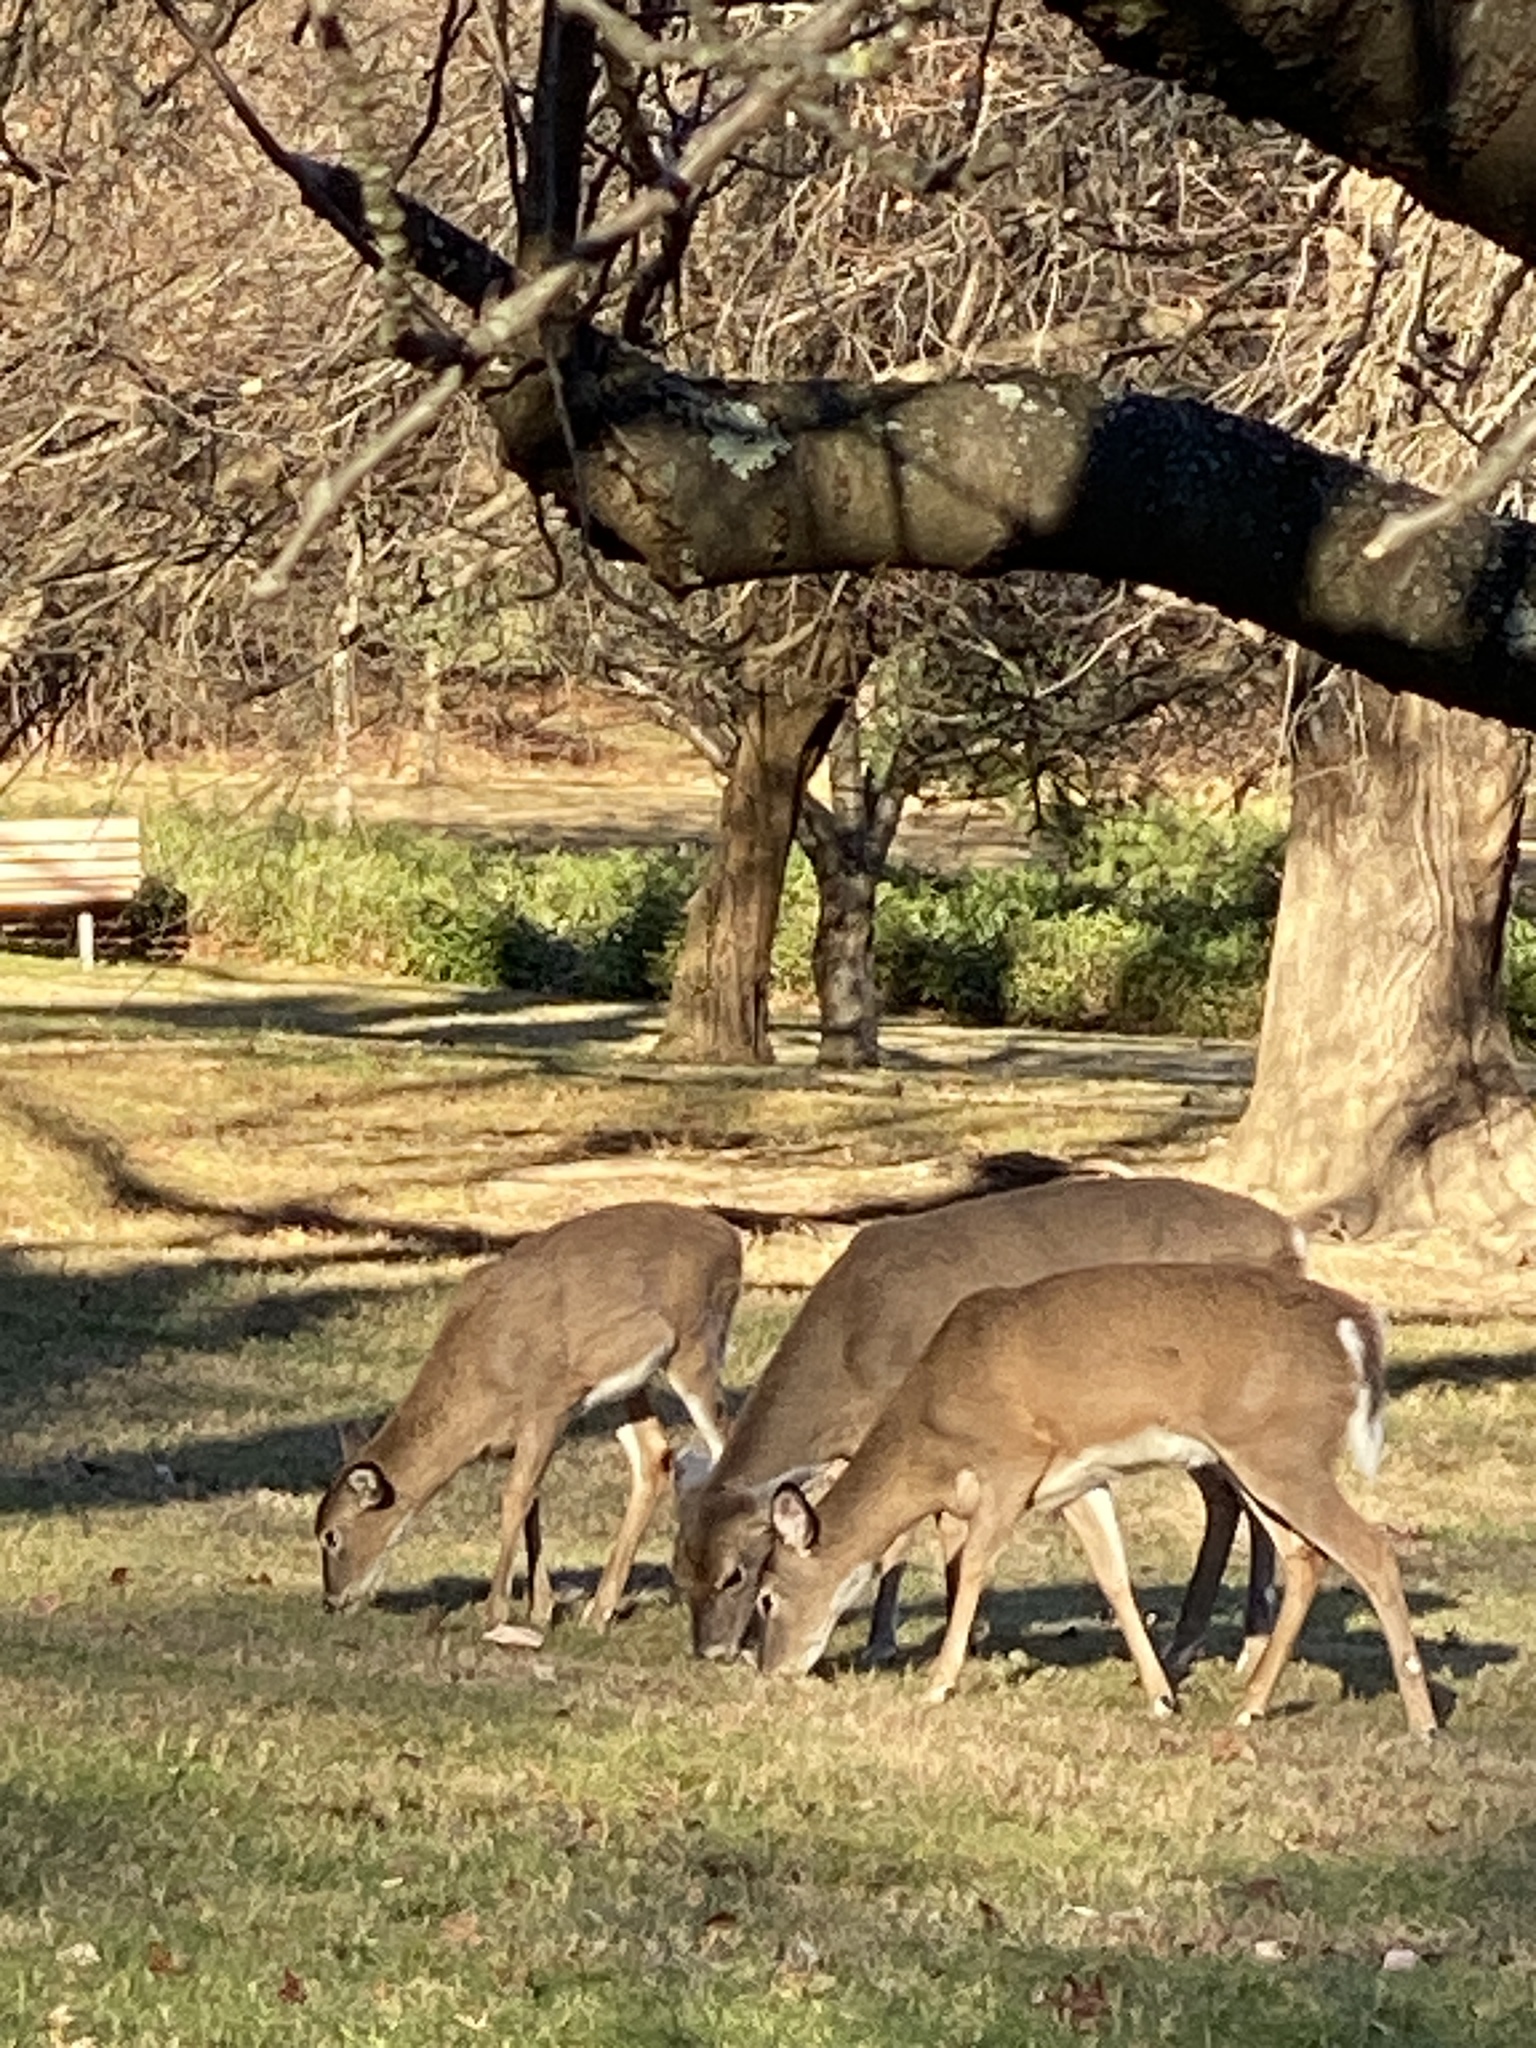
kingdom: Animalia
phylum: Chordata
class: Mammalia
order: Artiodactyla
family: Cervidae
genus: Odocoileus
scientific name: Odocoileus virginianus
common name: White-tailed deer
